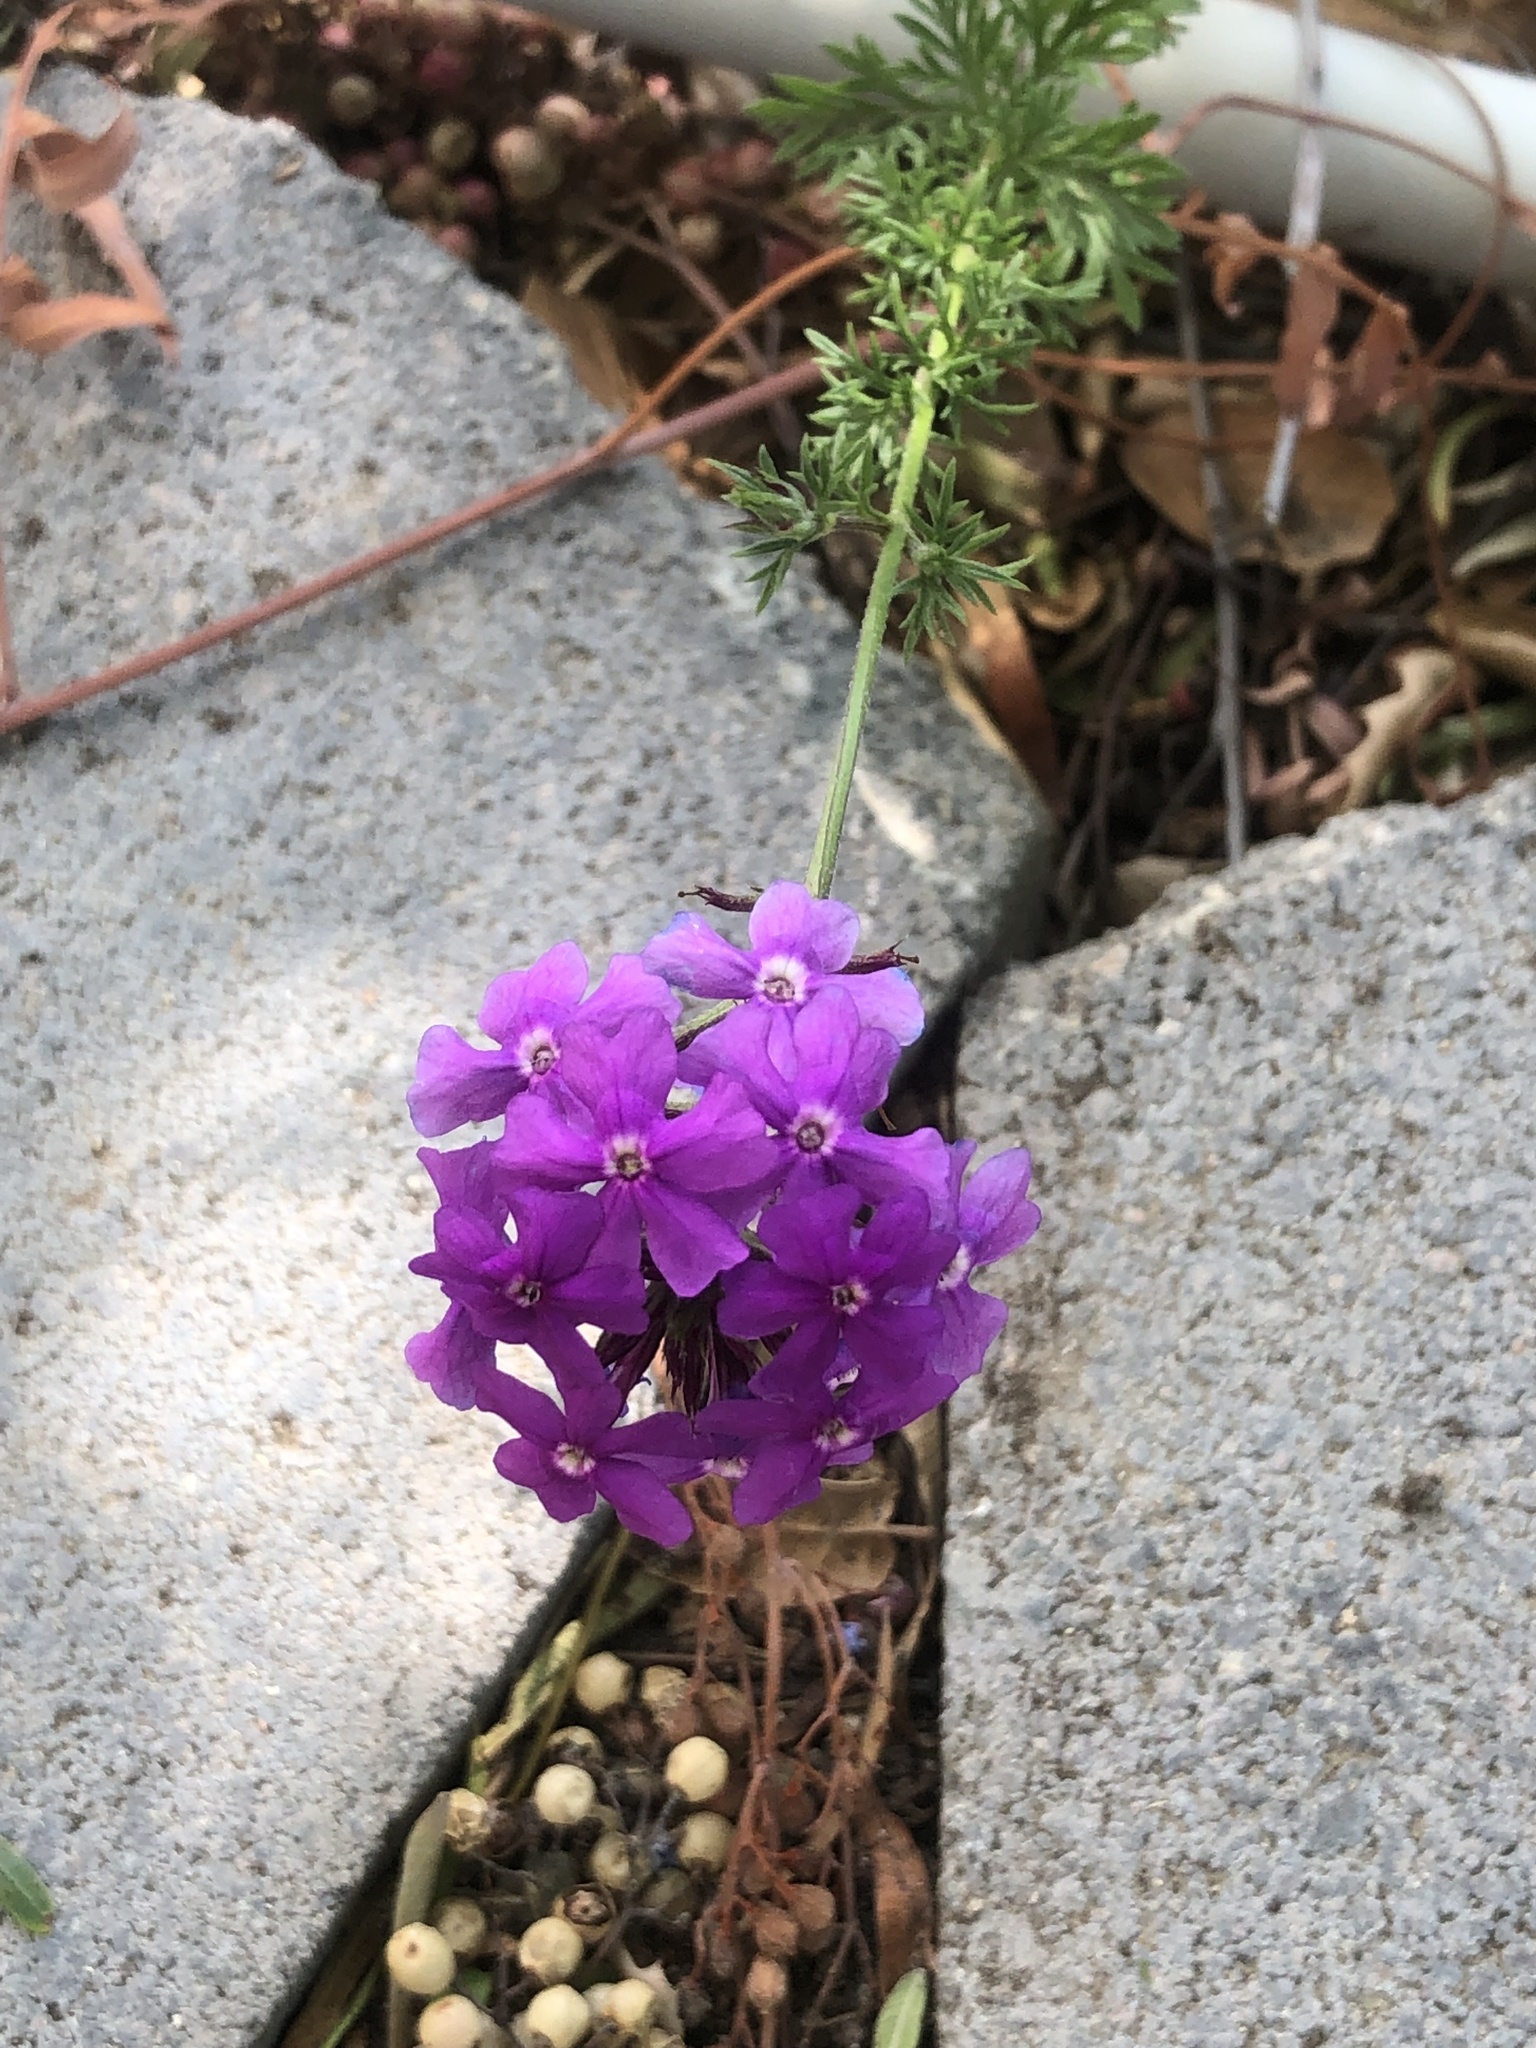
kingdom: Plantae
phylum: Tracheophyta
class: Magnoliopsida
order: Lamiales
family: Verbenaceae
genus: Verbena
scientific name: Verbena
